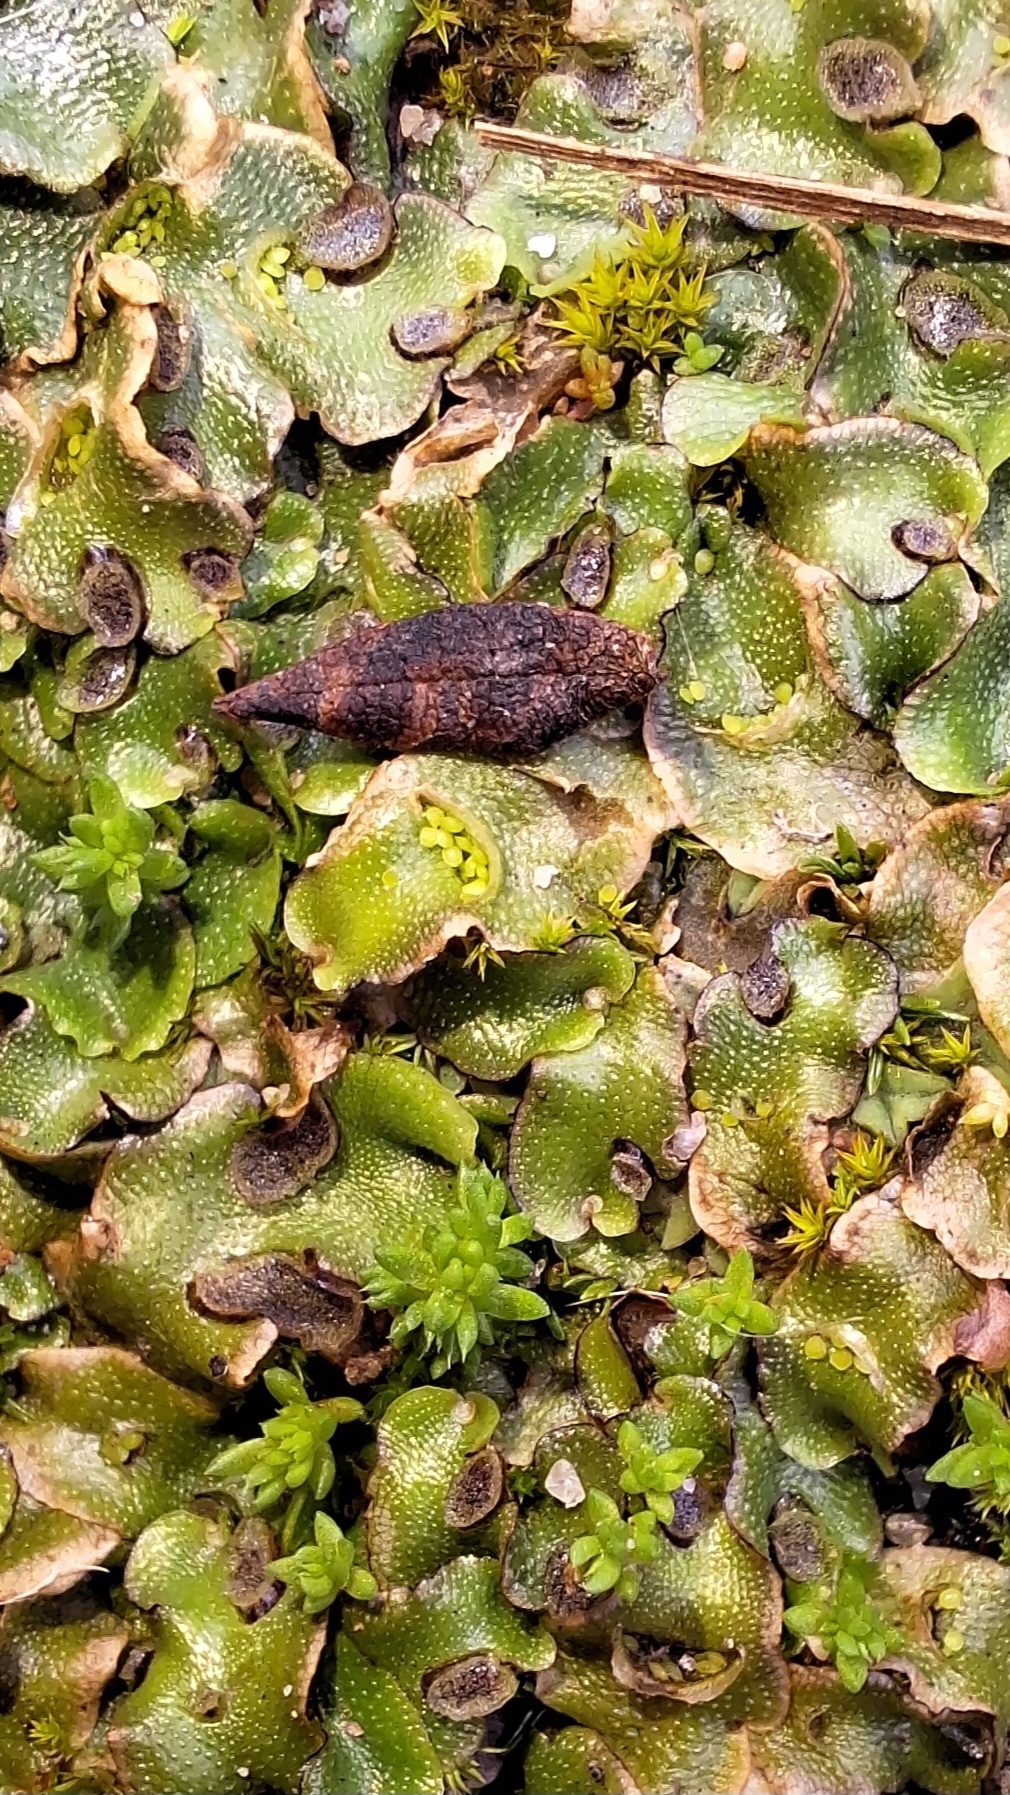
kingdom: Plantae
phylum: Marchantiophyta
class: Marchantiopsida
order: Lunulariales
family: Lunulariaceae
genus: Lunularia
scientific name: Lunularia cruciata
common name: Crescent-cup liverwort
